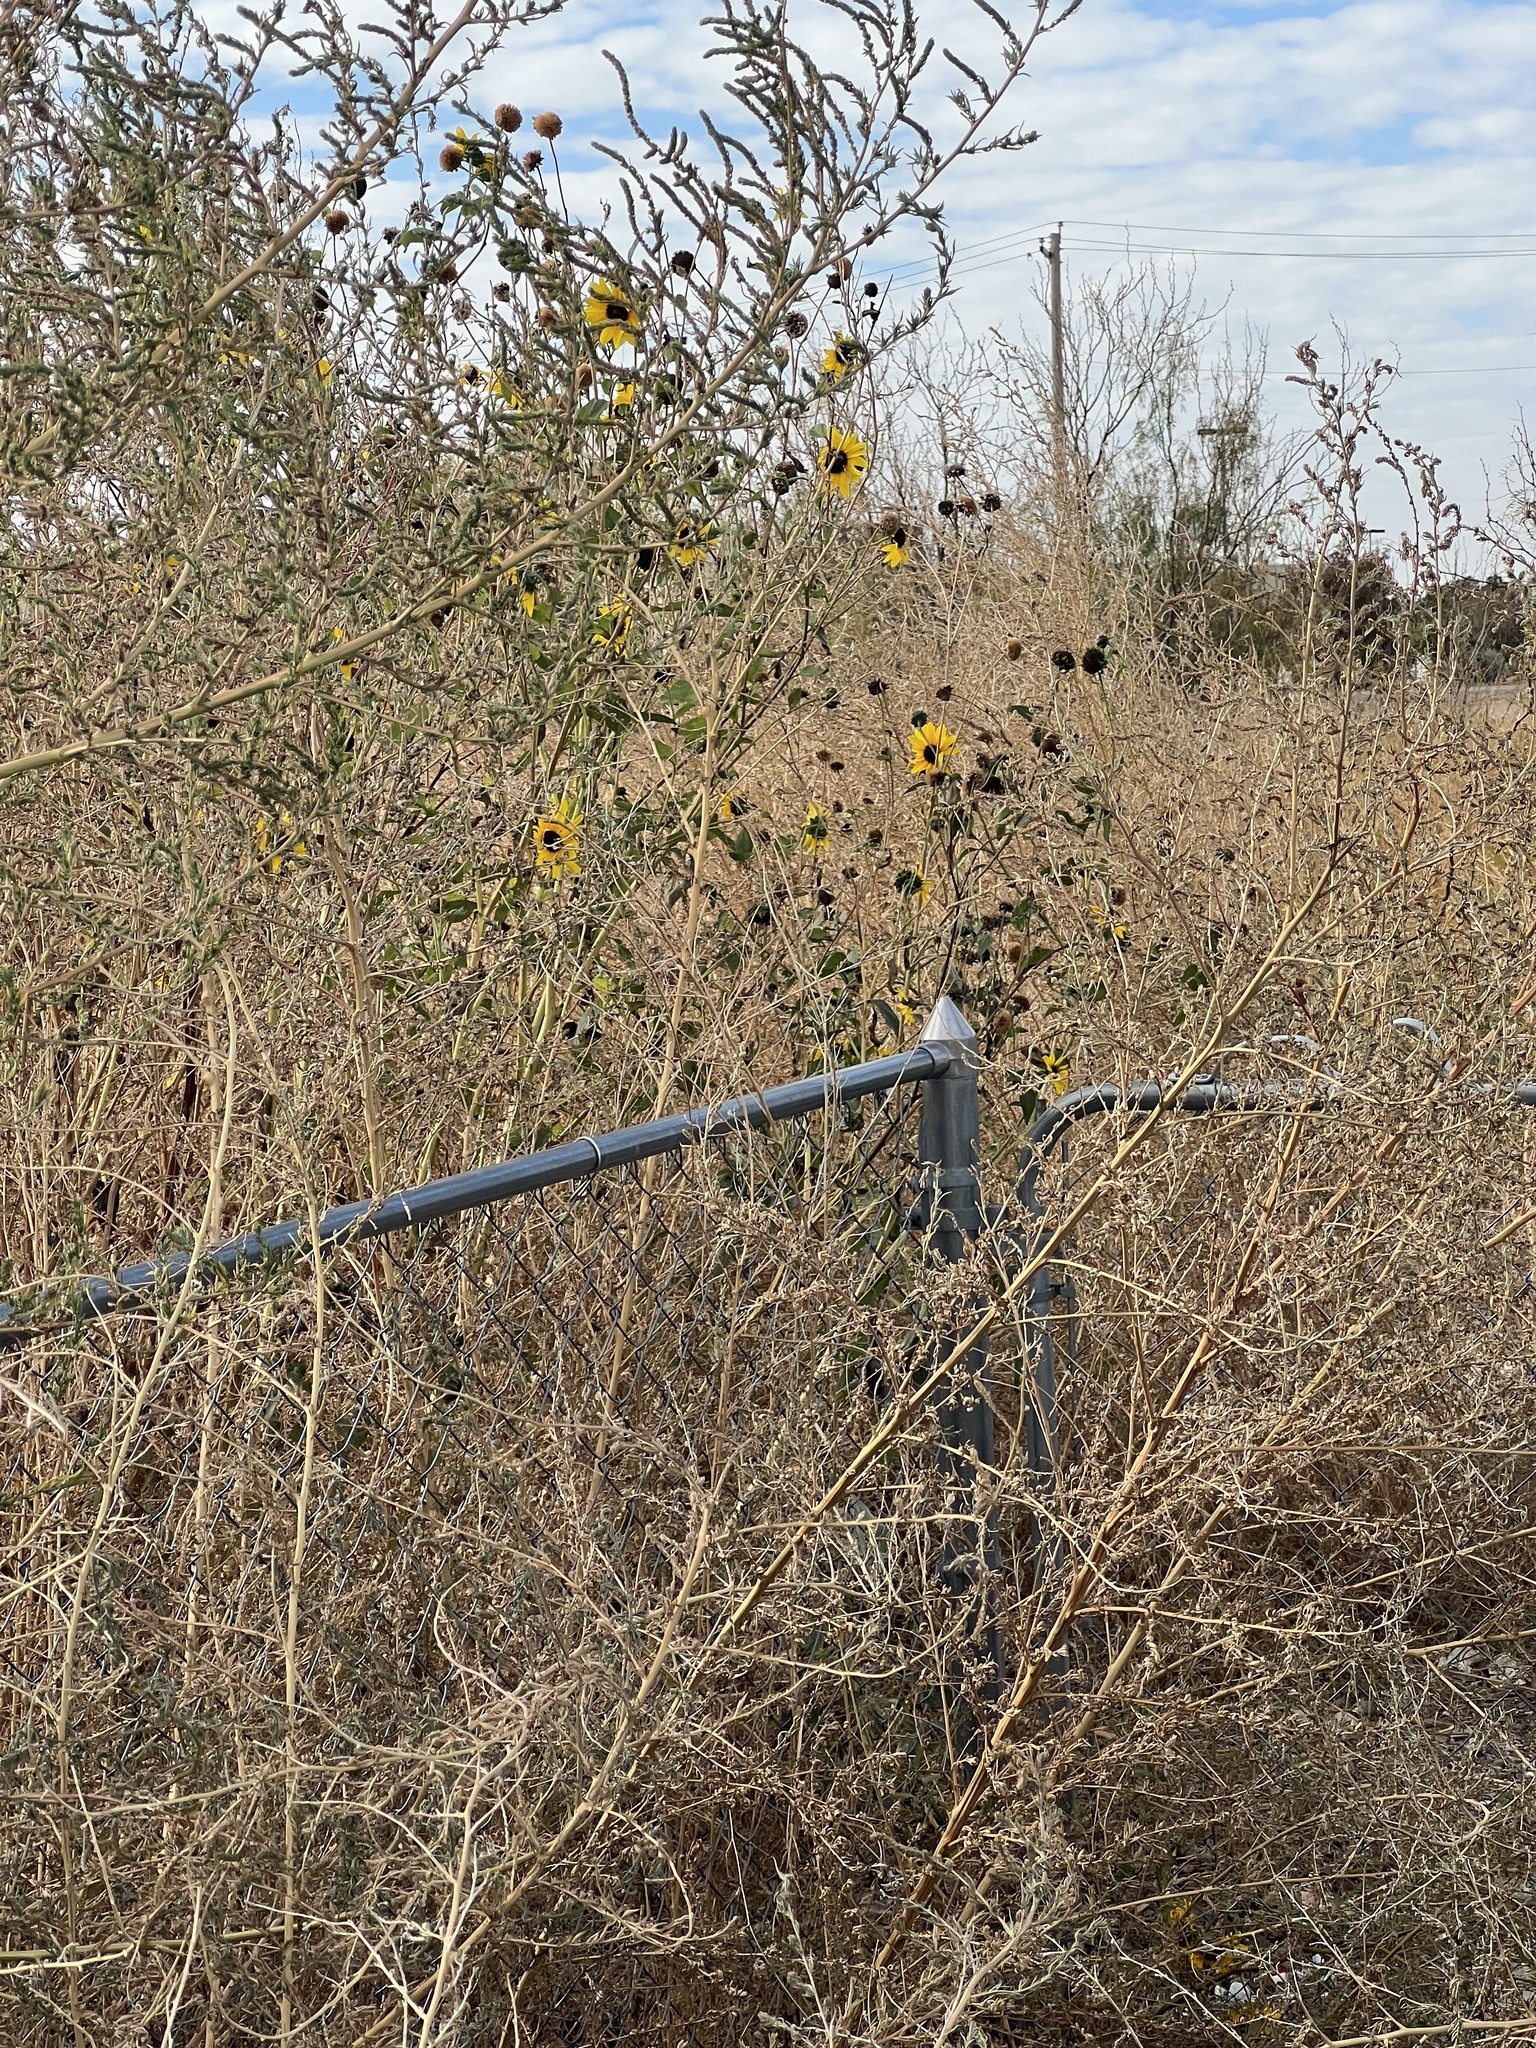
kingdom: Plantae
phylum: Tracheophyta
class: Magnoliopsida
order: Asterales
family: Asteraceae
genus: Helianthus
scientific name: Helianthus annuus
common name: Sunflower
